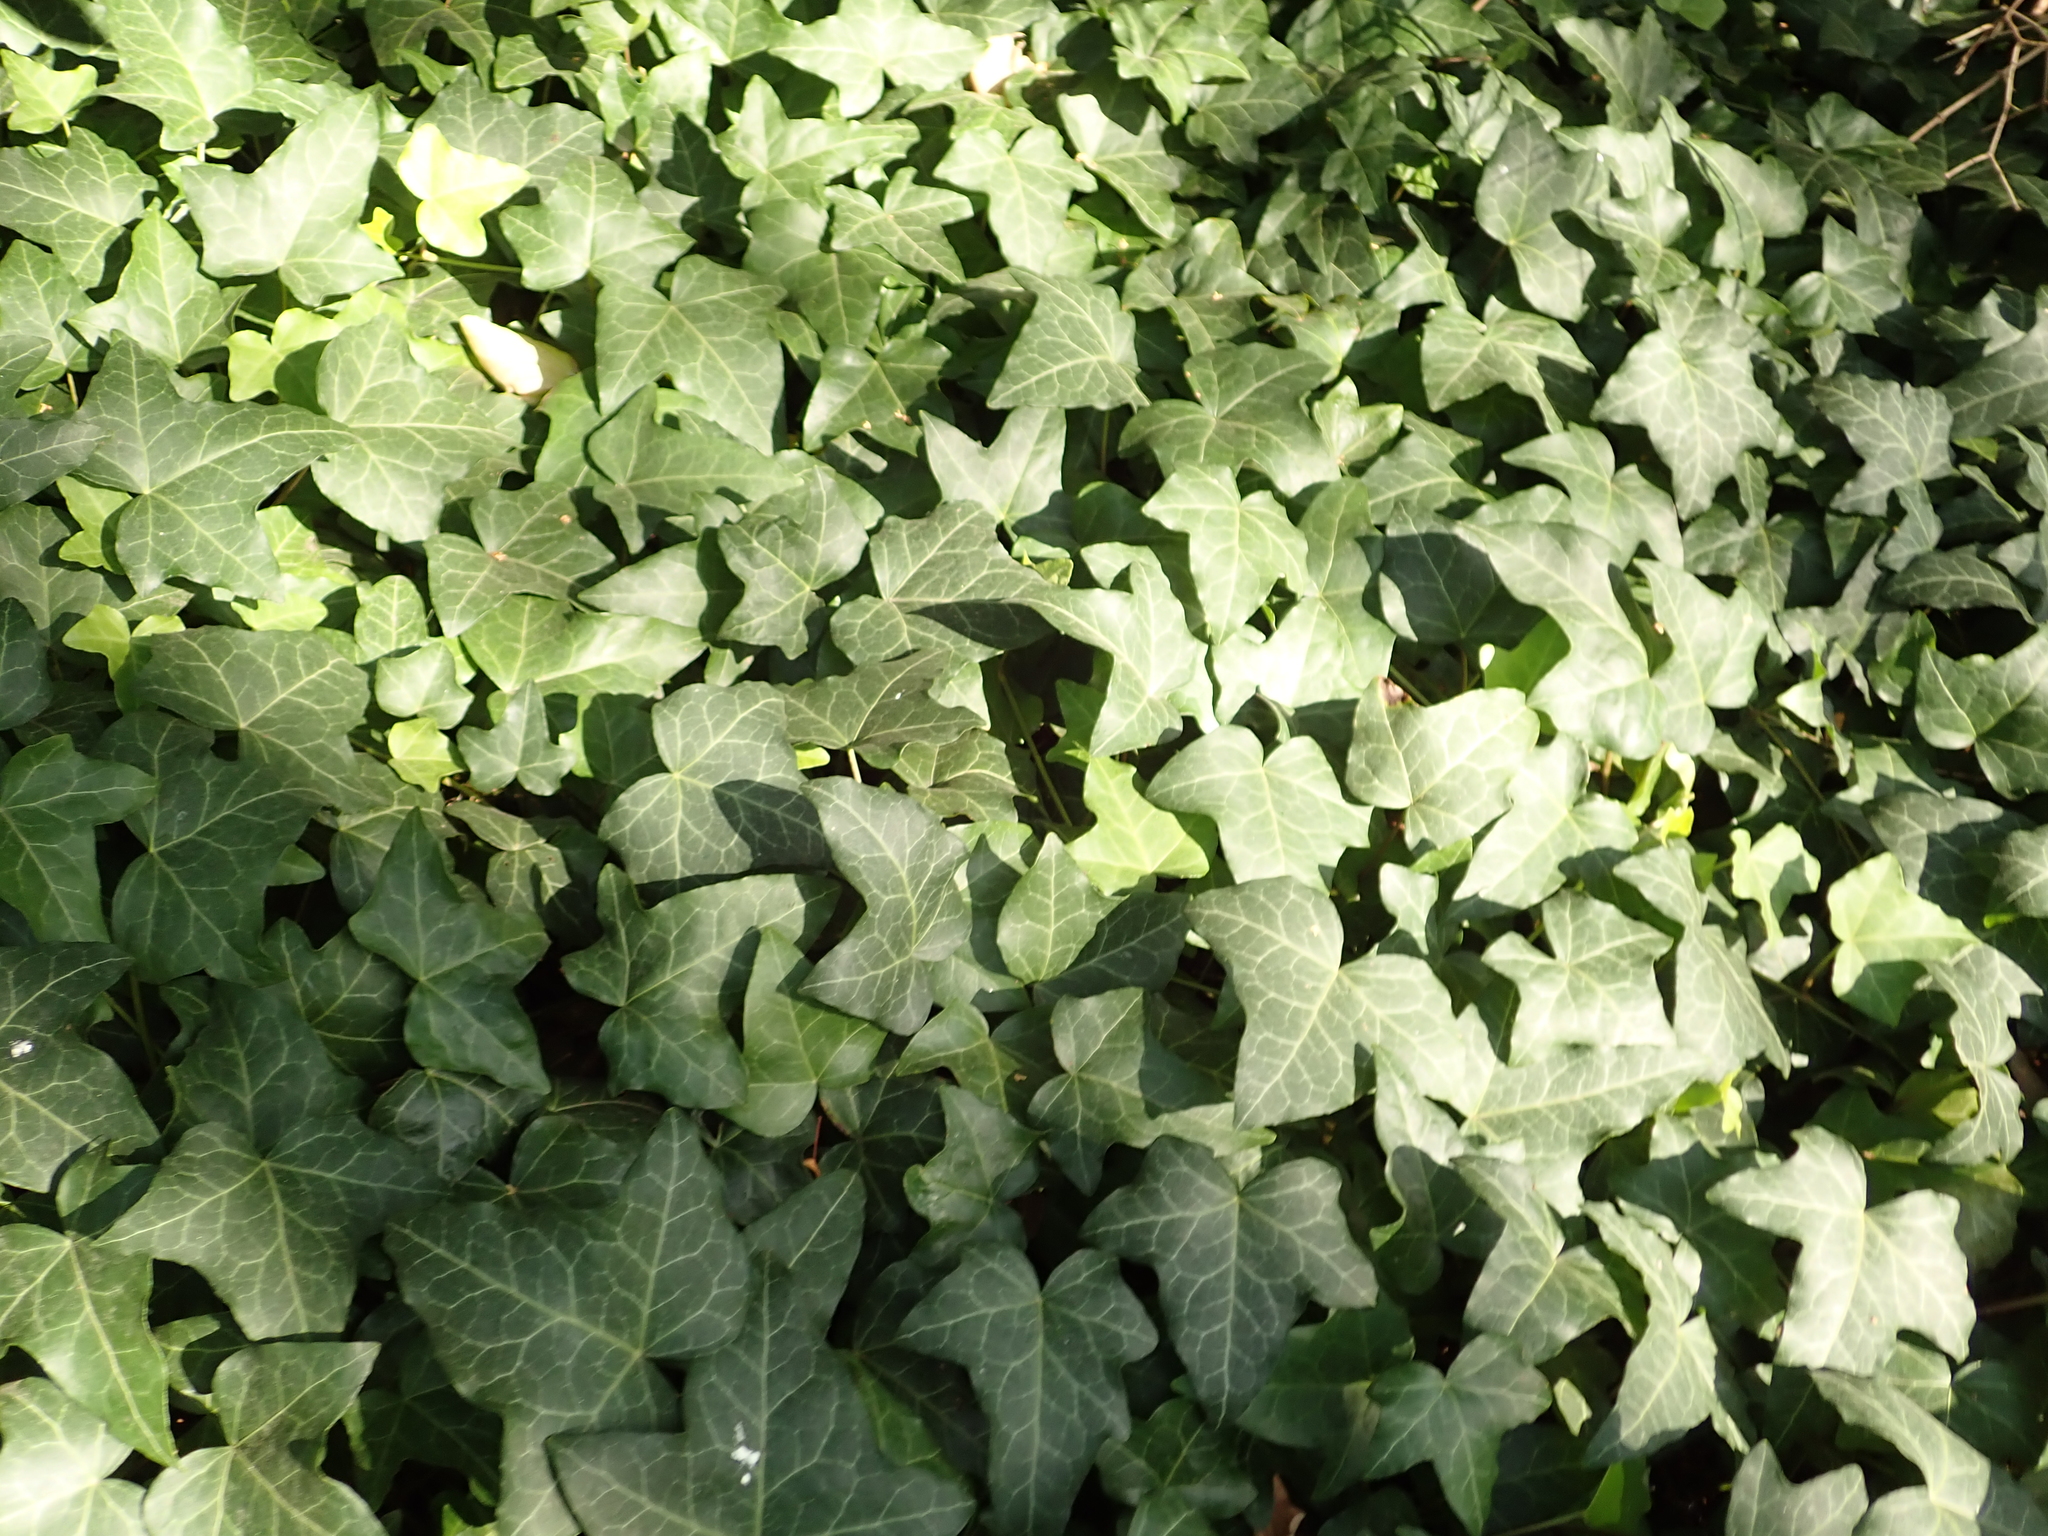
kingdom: Plantae
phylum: Tracheophyta
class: Magnoliopsida
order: Apiales
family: Araliaceae
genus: Hedera
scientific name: Hedera helix
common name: Ivy
